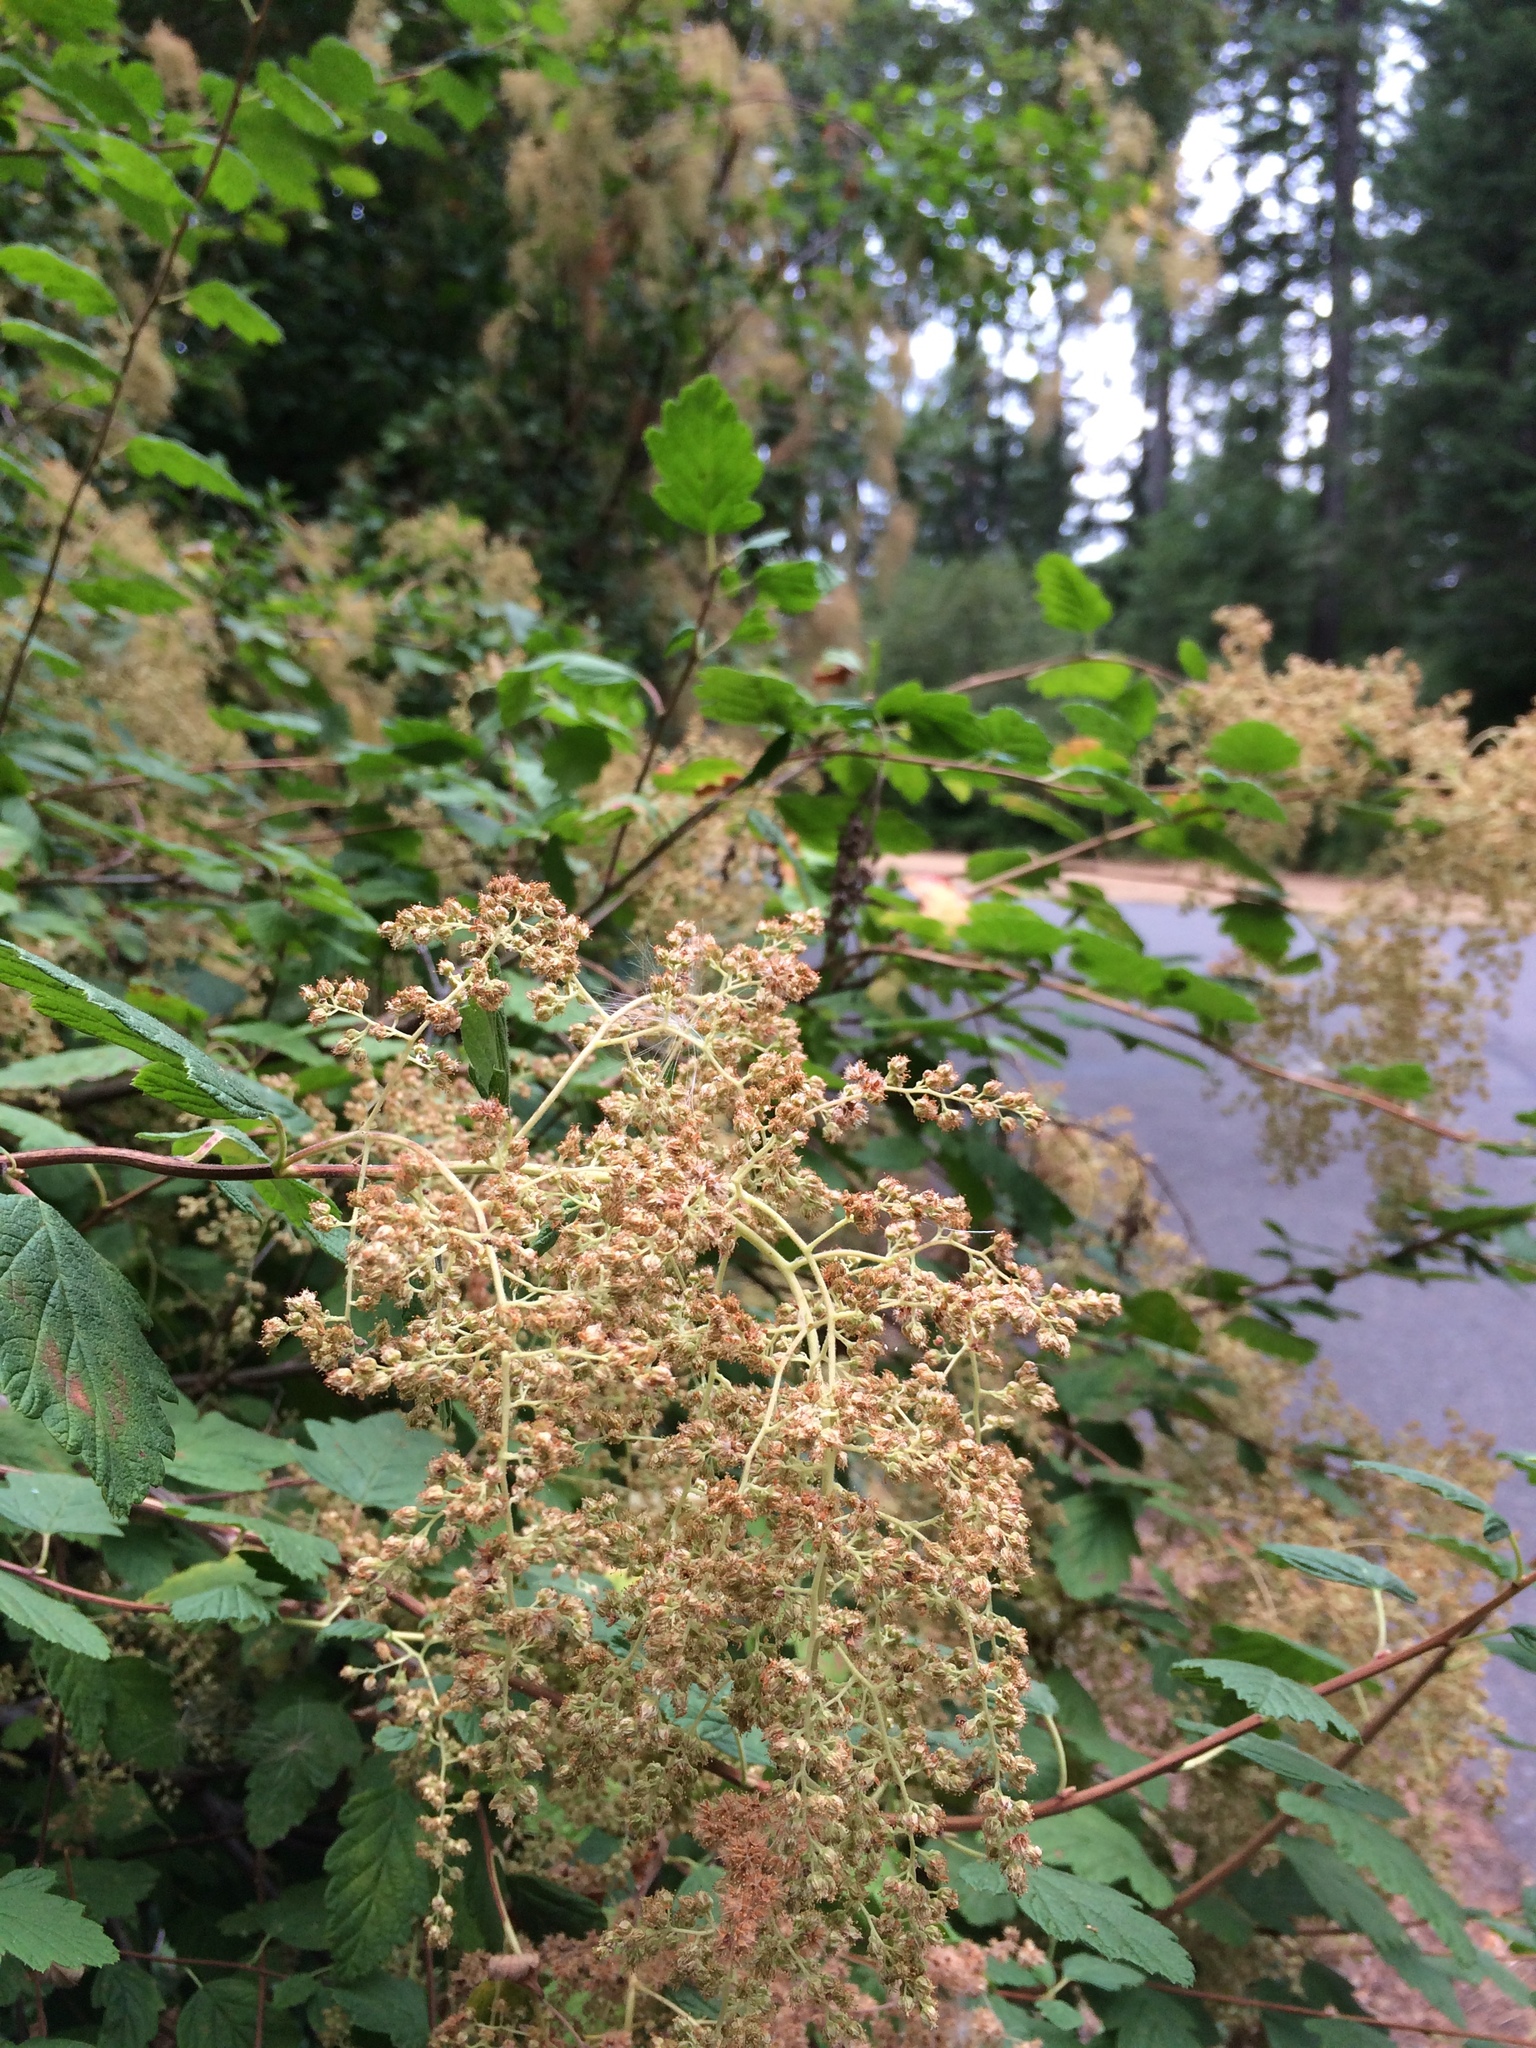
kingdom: Plantae
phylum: Tracheophyta
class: Magnoliopsida
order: Rosales
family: Rosaceae
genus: Holodiscus
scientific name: Holodiscus discolor
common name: Oceanspray
